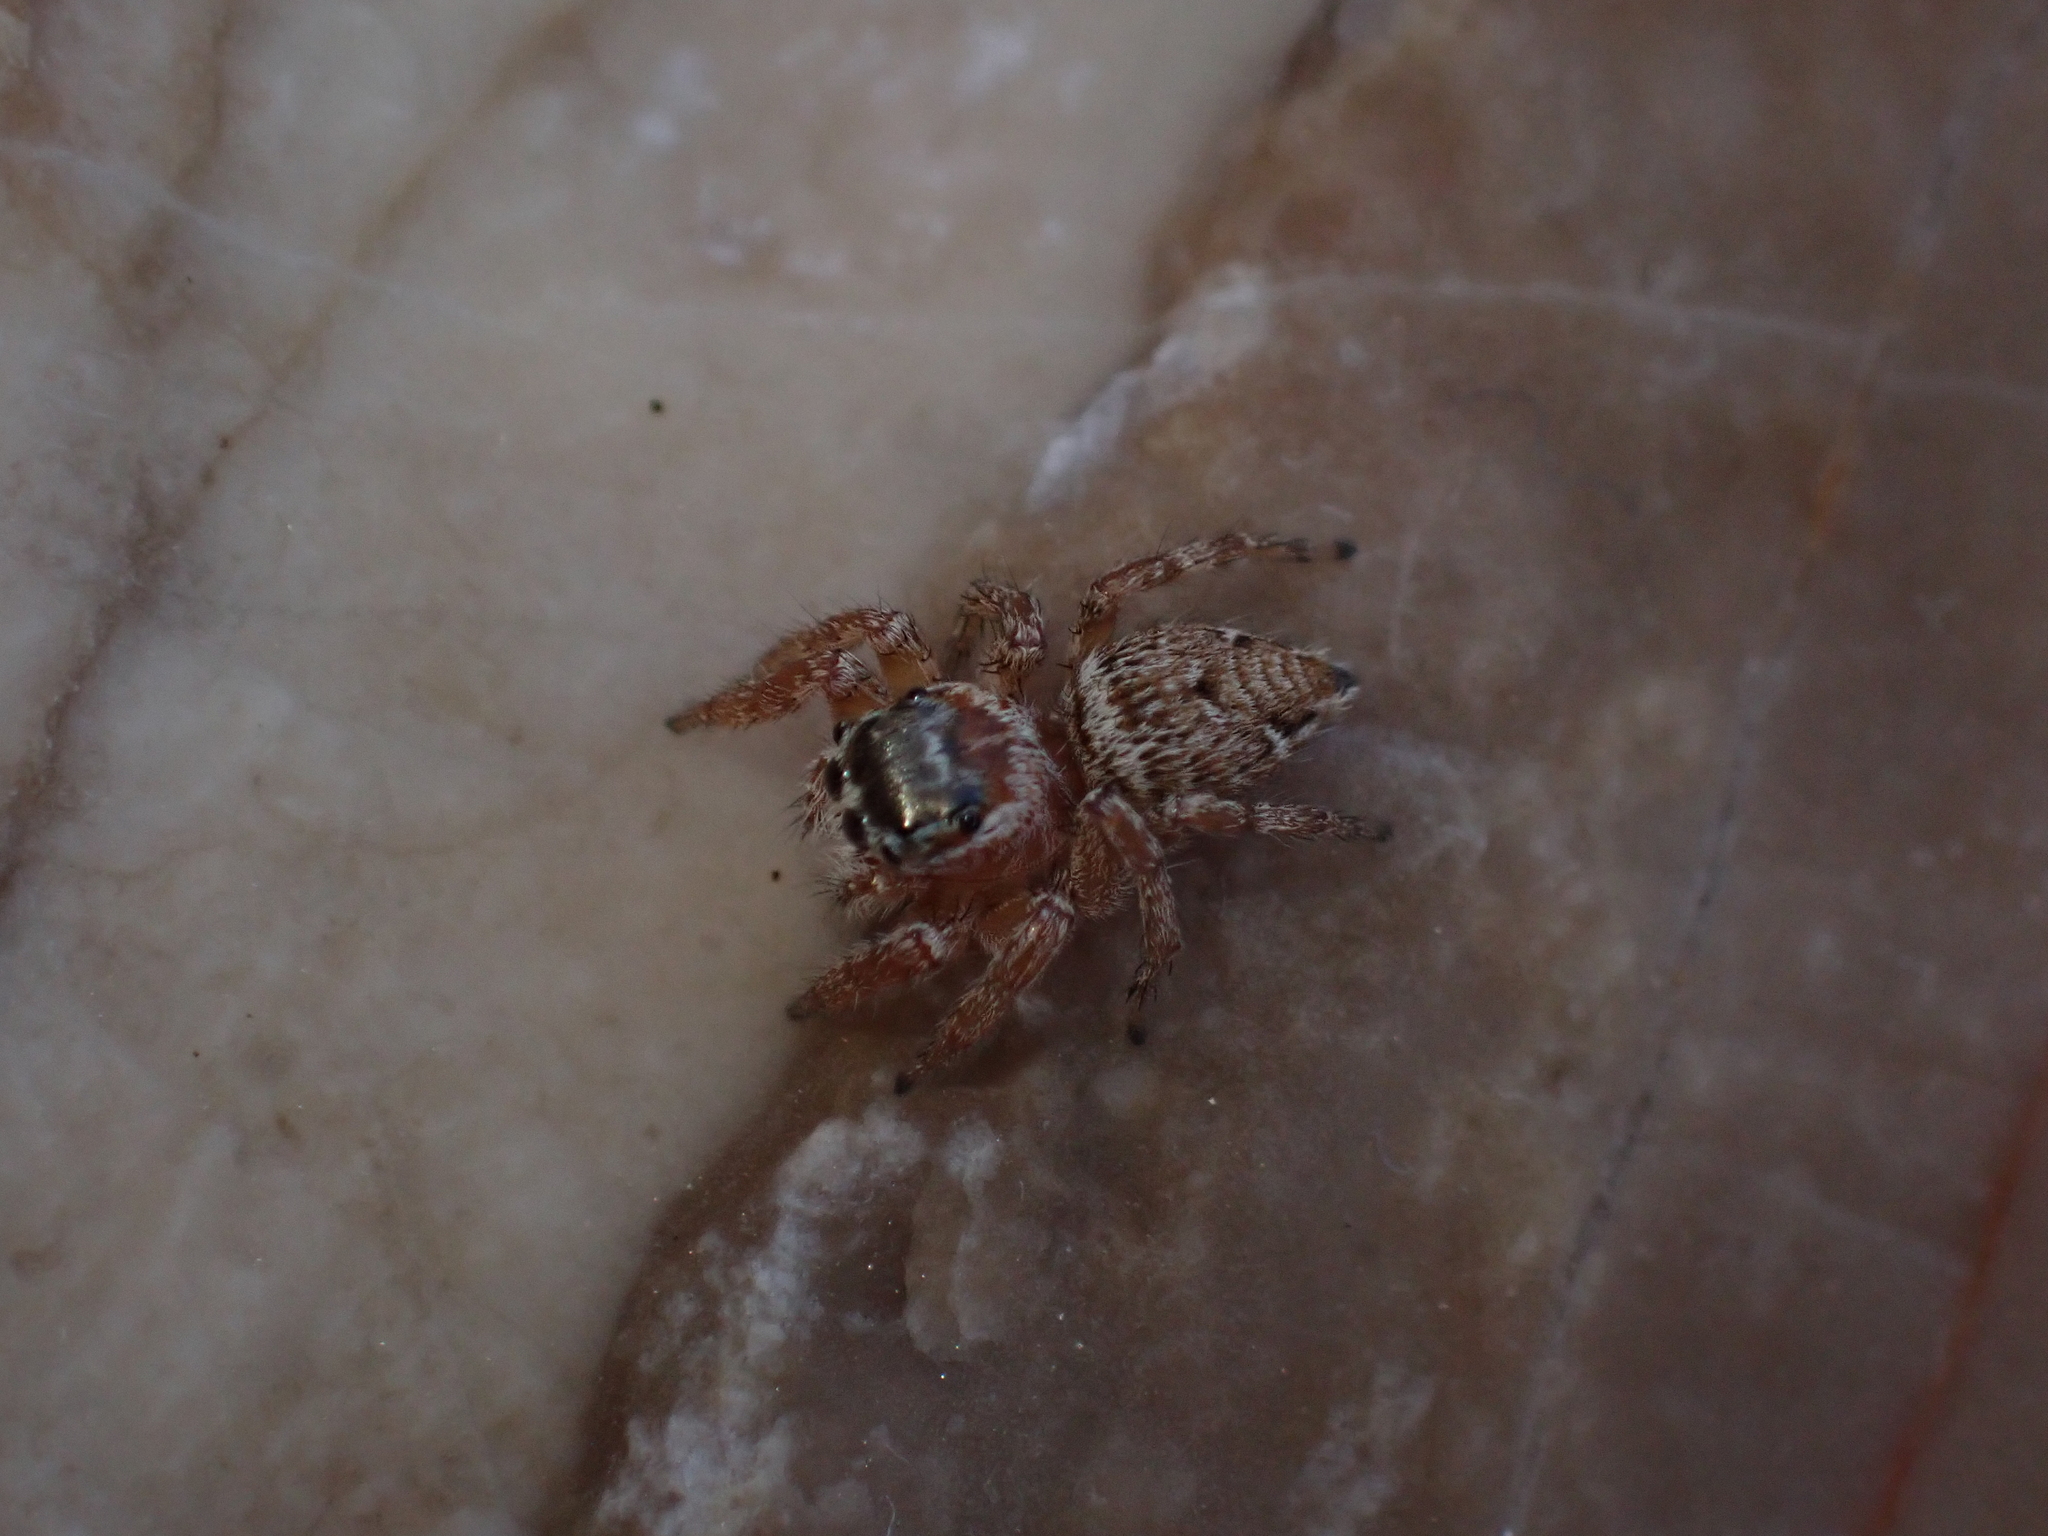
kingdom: Animalia
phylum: Arthropoda
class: Arachnida
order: Araneae
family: Salticidae
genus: Evarcha
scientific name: Evarcha jucunda
